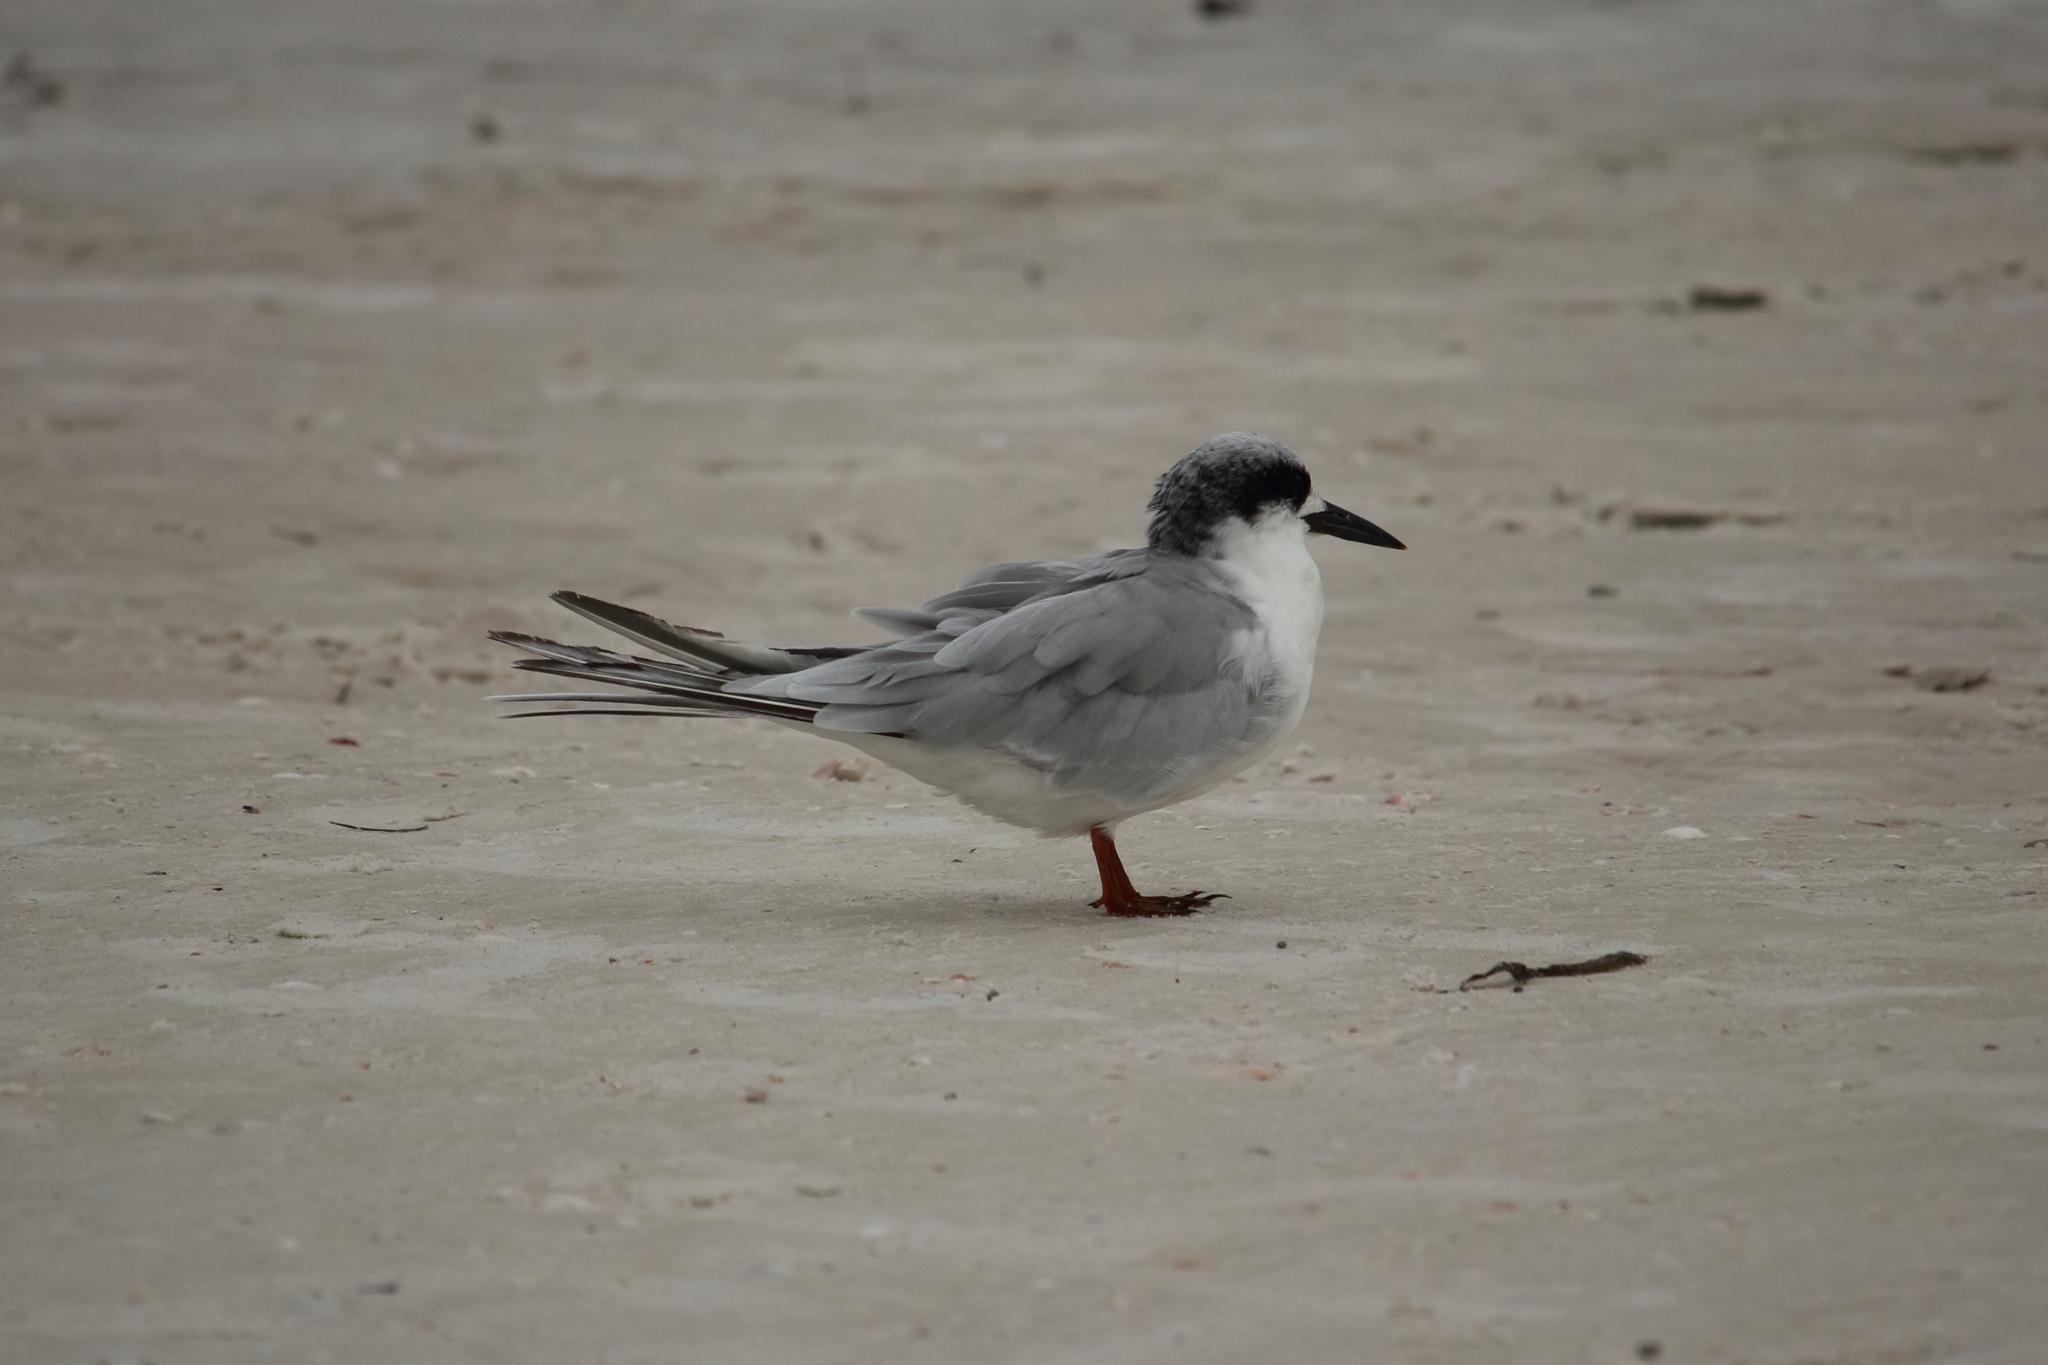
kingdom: Animalia
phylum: Chordata
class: Aves
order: Charadriiformes
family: Laridae
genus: Sterna
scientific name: Sterna forsteri
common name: Forster's tern
